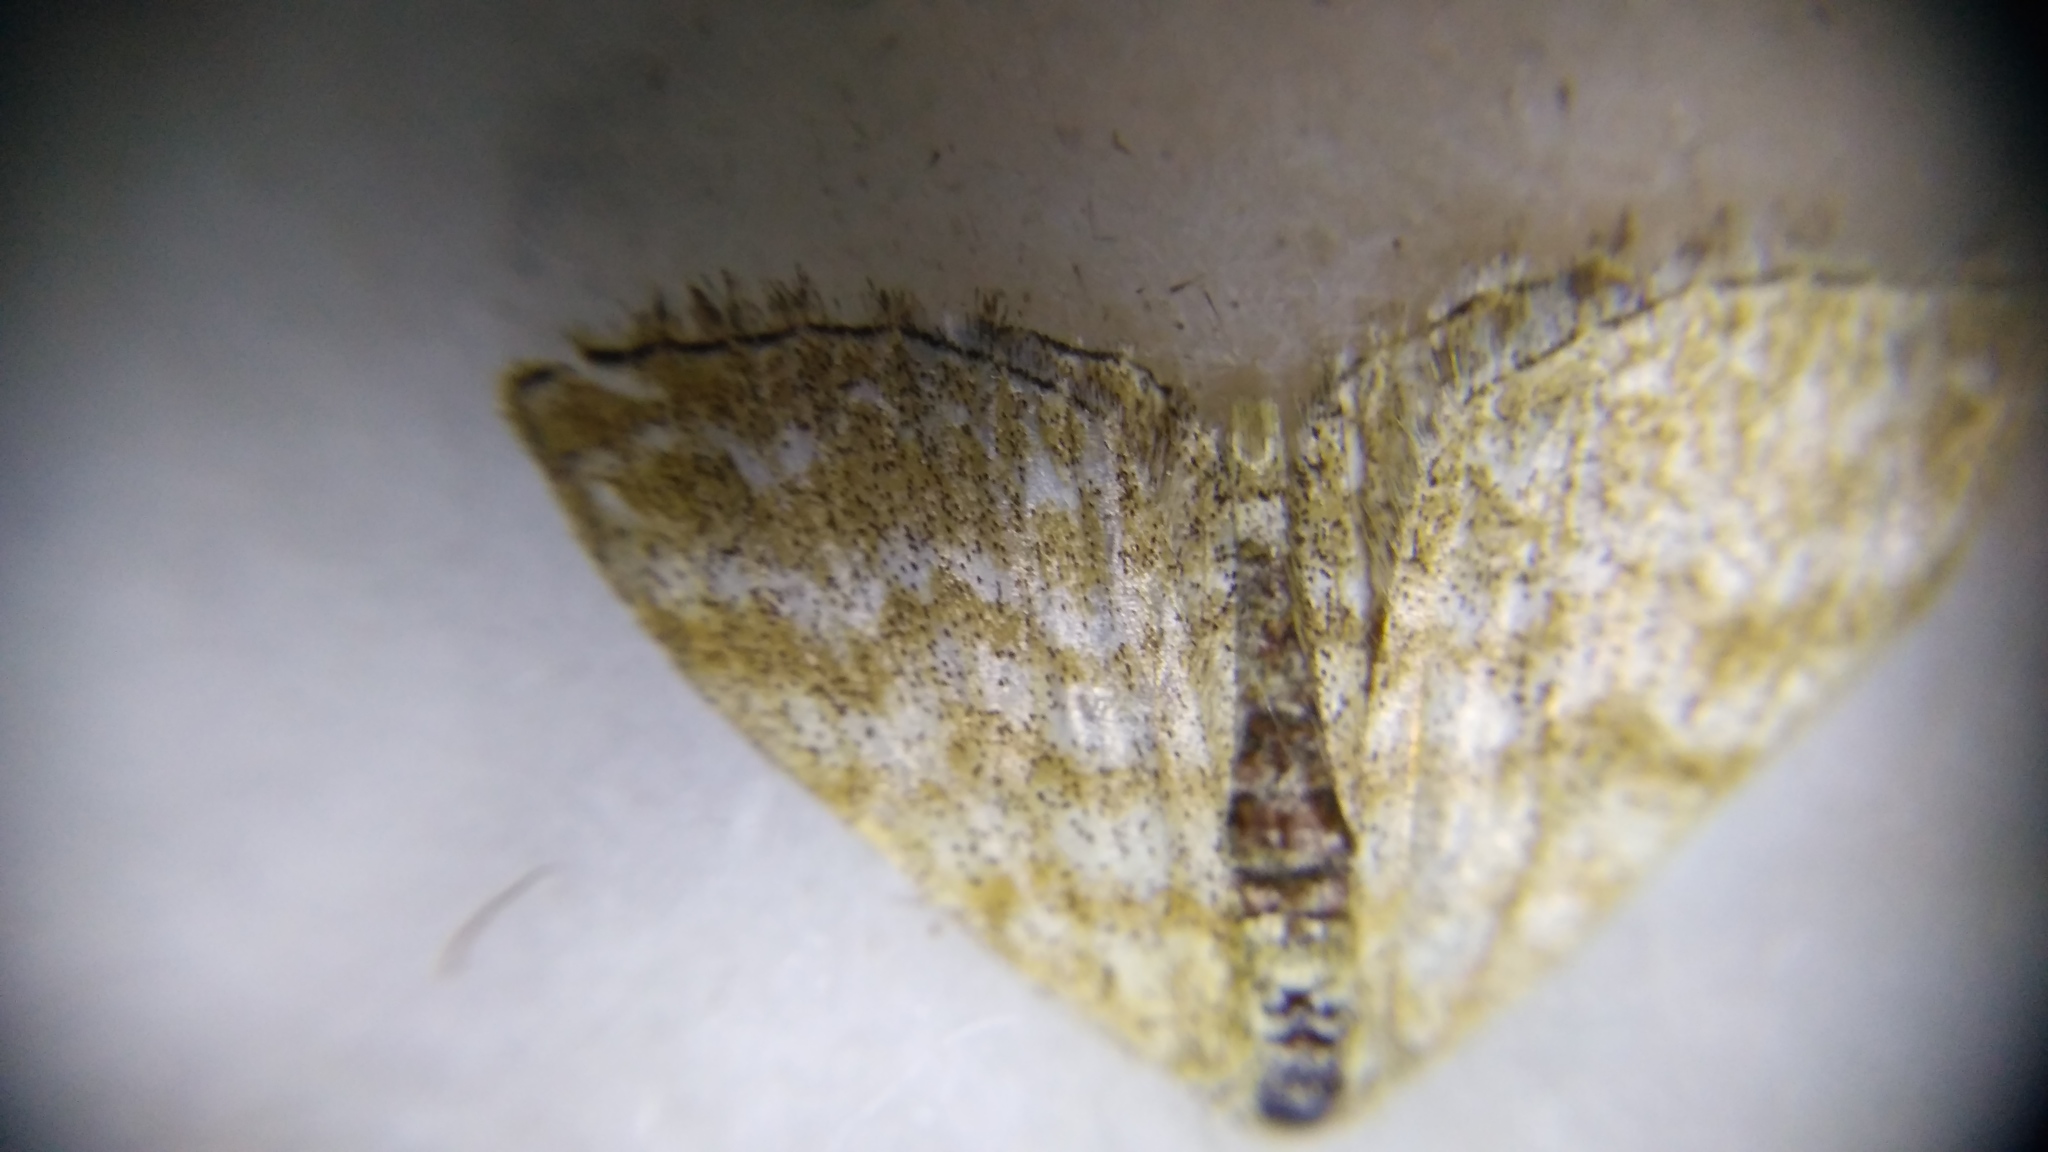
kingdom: Animalia
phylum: Arthropoda
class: Insecta
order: Lepidoptera
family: Geometridae
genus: Scopula
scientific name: Scopula immorata
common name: Lewes wave
